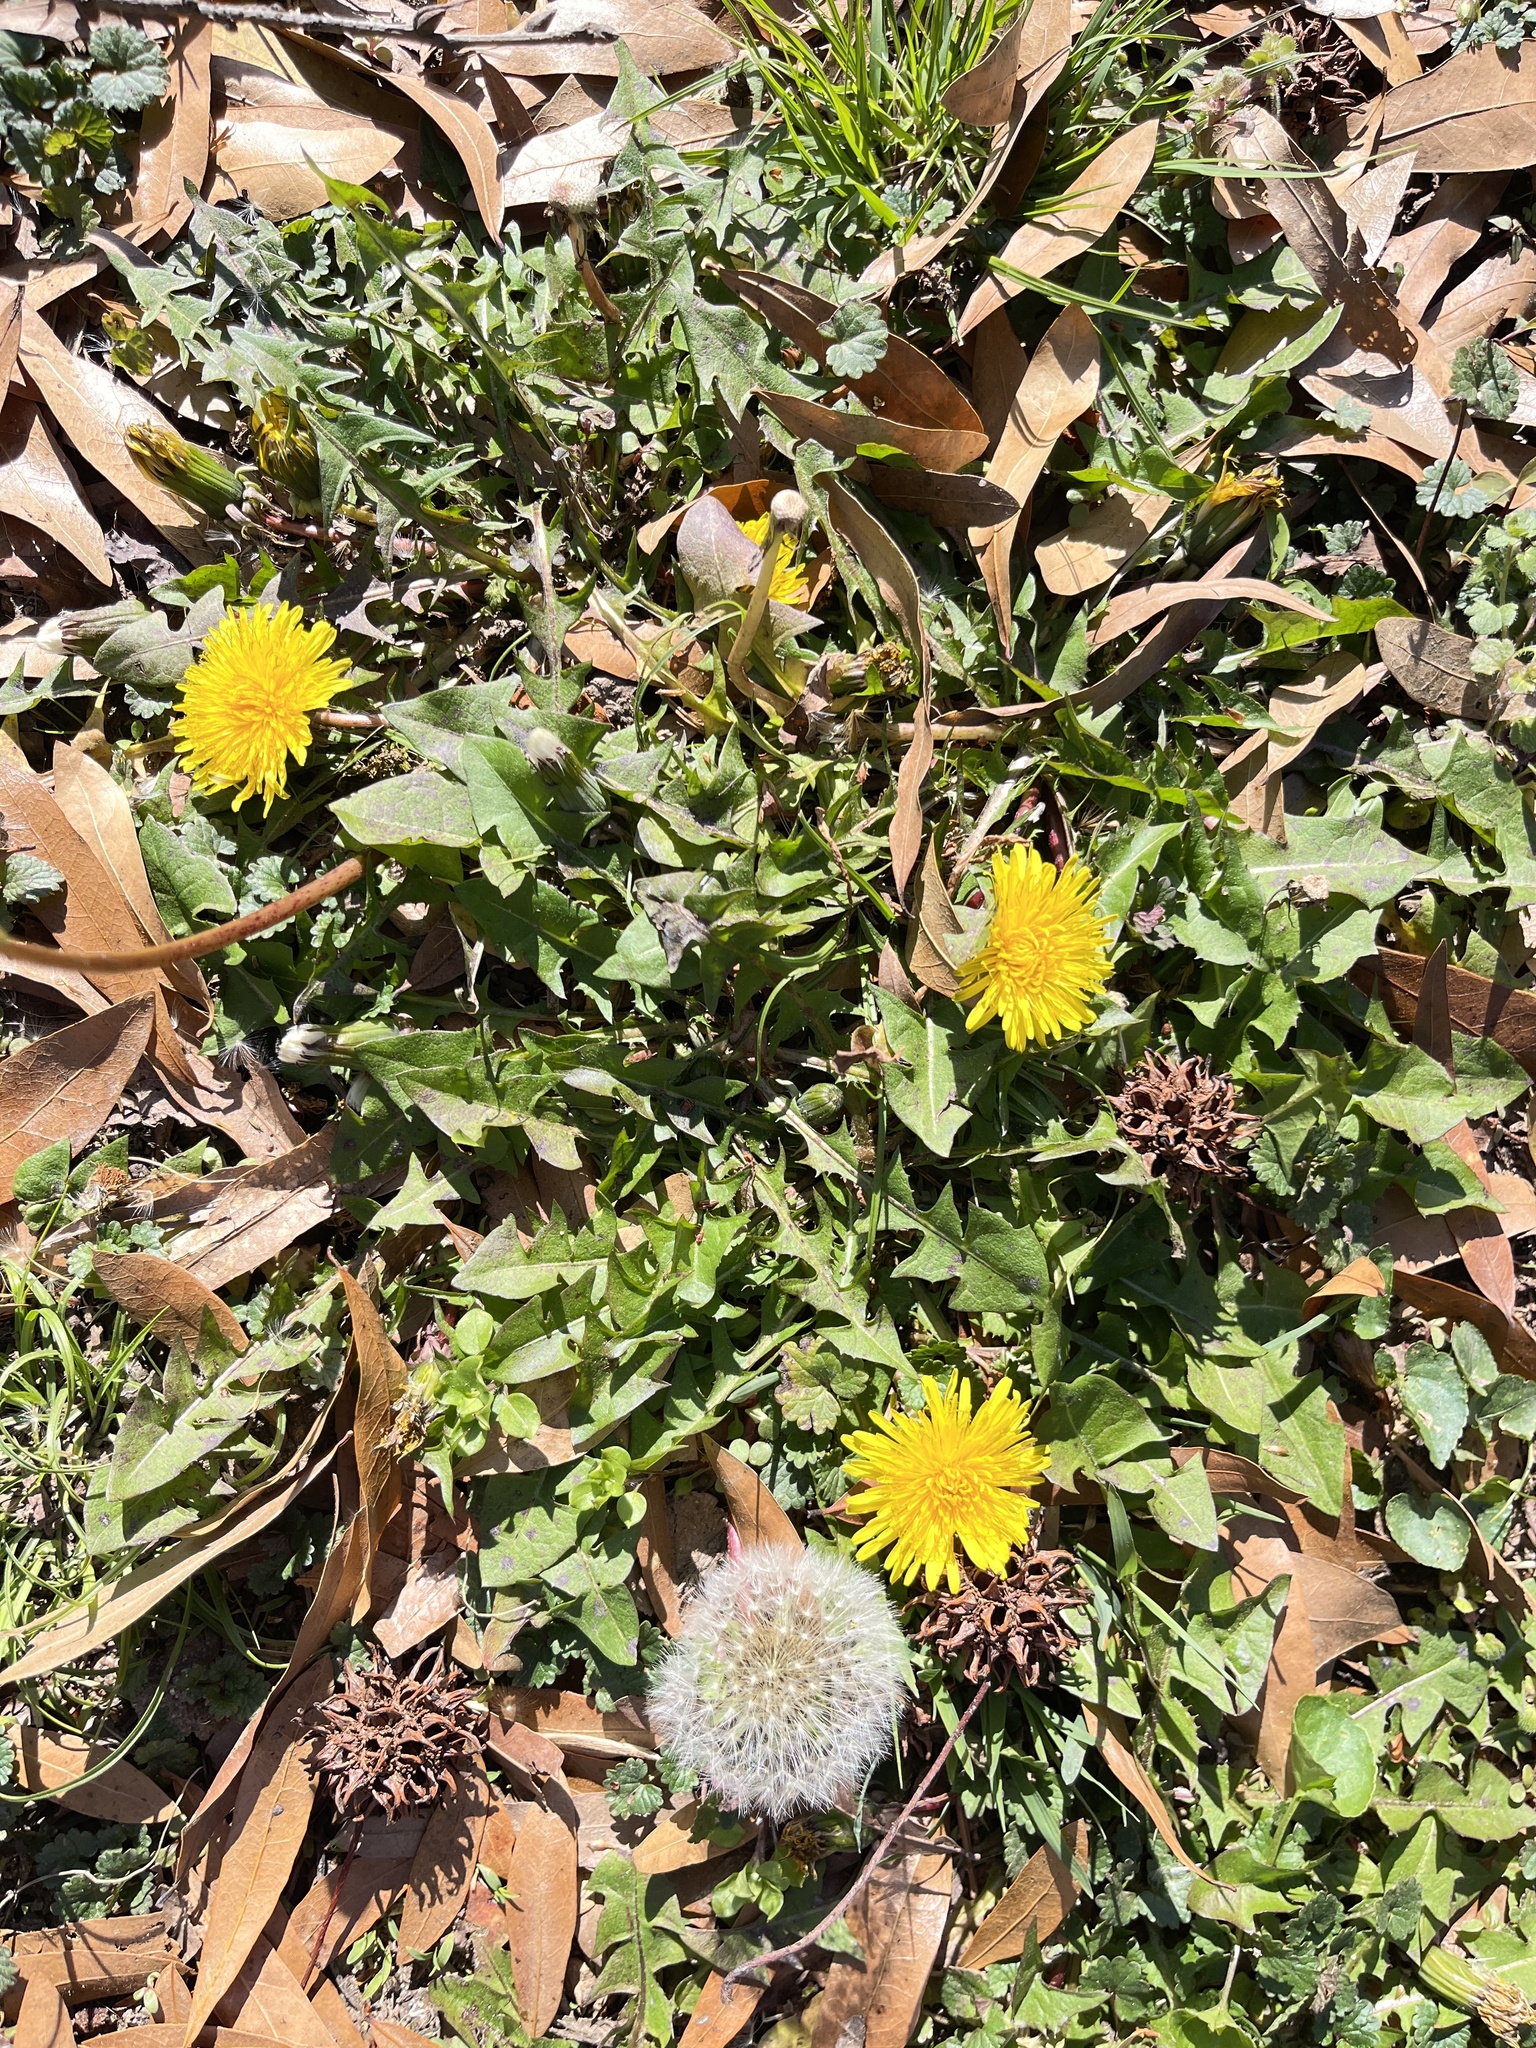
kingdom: Plantae
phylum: Tracheophyta
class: Magnoliopsida
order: Asterales
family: Asteraceae
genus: Taraxacum
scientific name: Taraxacum
